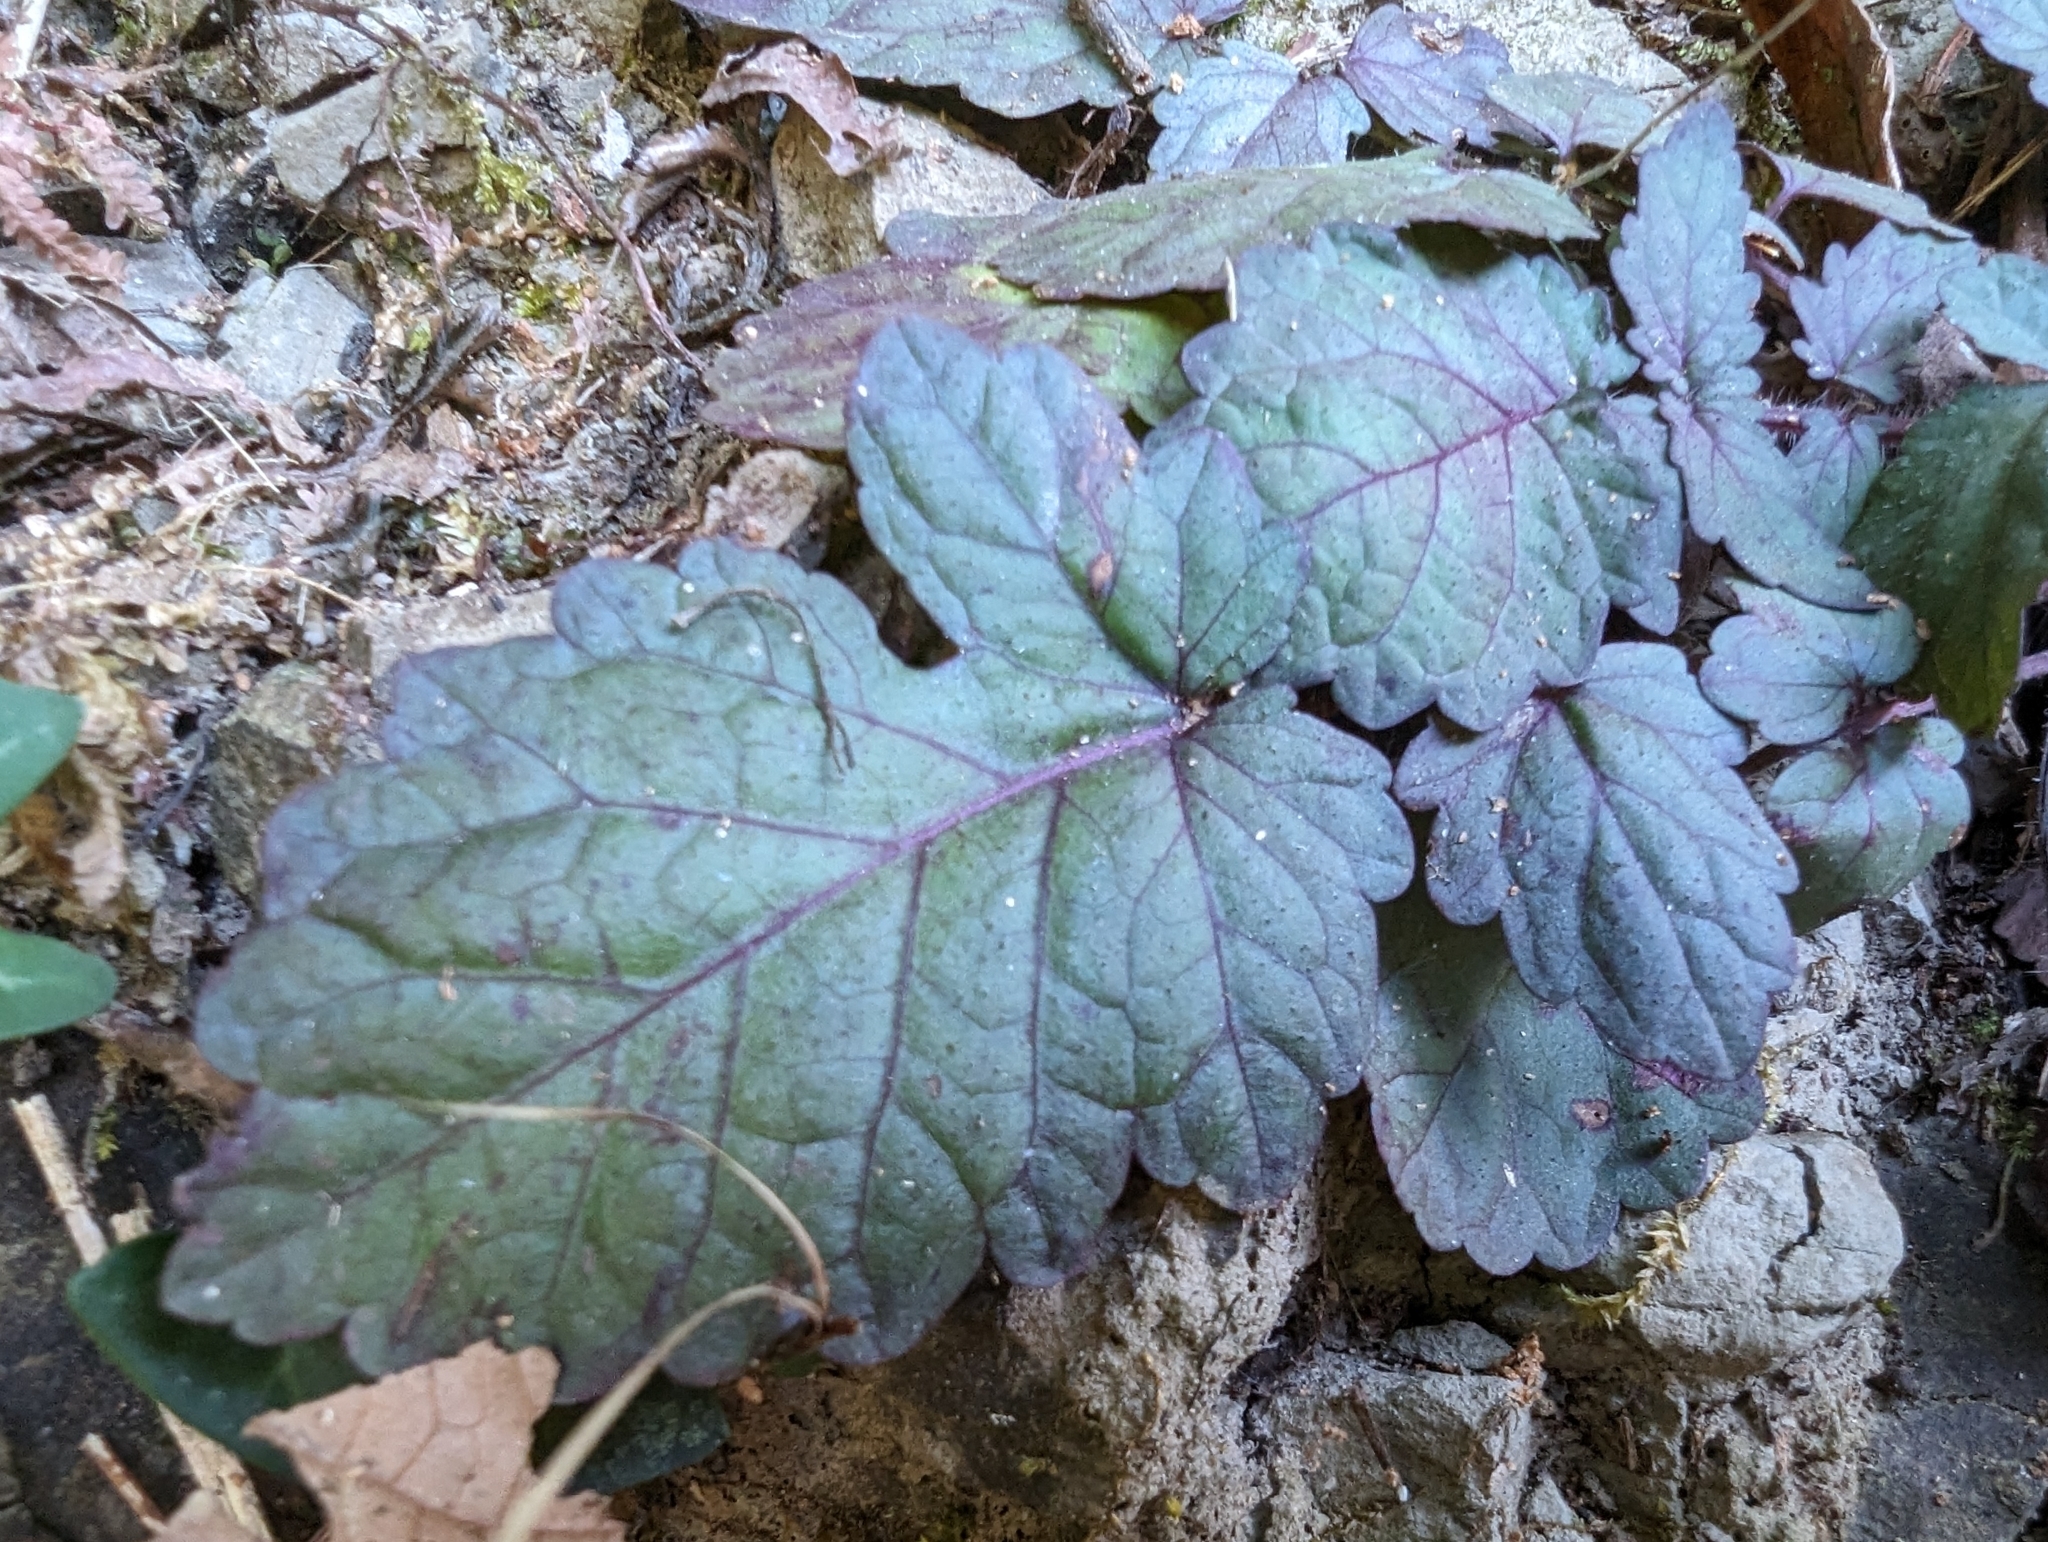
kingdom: Plantae
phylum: Tracheophyta
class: Magnoliopsida
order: Lamiales
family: Lamiaceae
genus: Salvia
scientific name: Salvia hayatae
